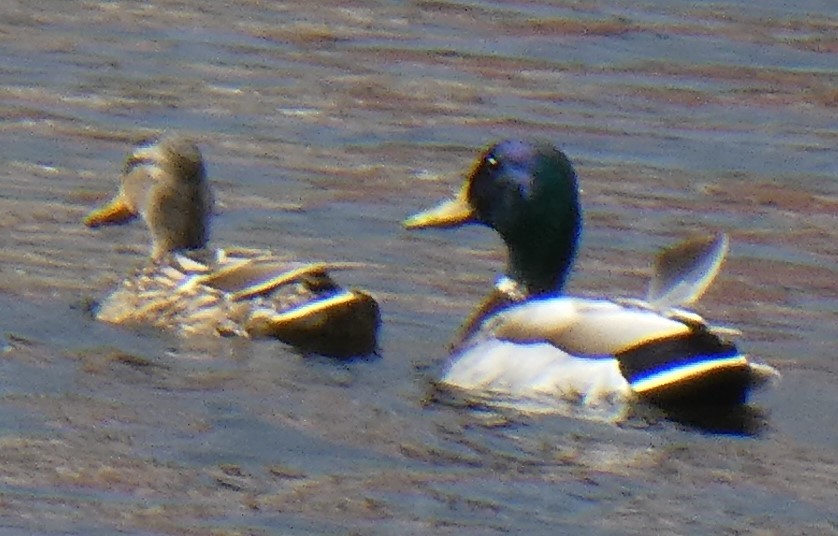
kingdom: Animalia
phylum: Chordata
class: Aves
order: Anseriformes
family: Anatidae
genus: Anas
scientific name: Anas platyrhynchos
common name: Mallard
